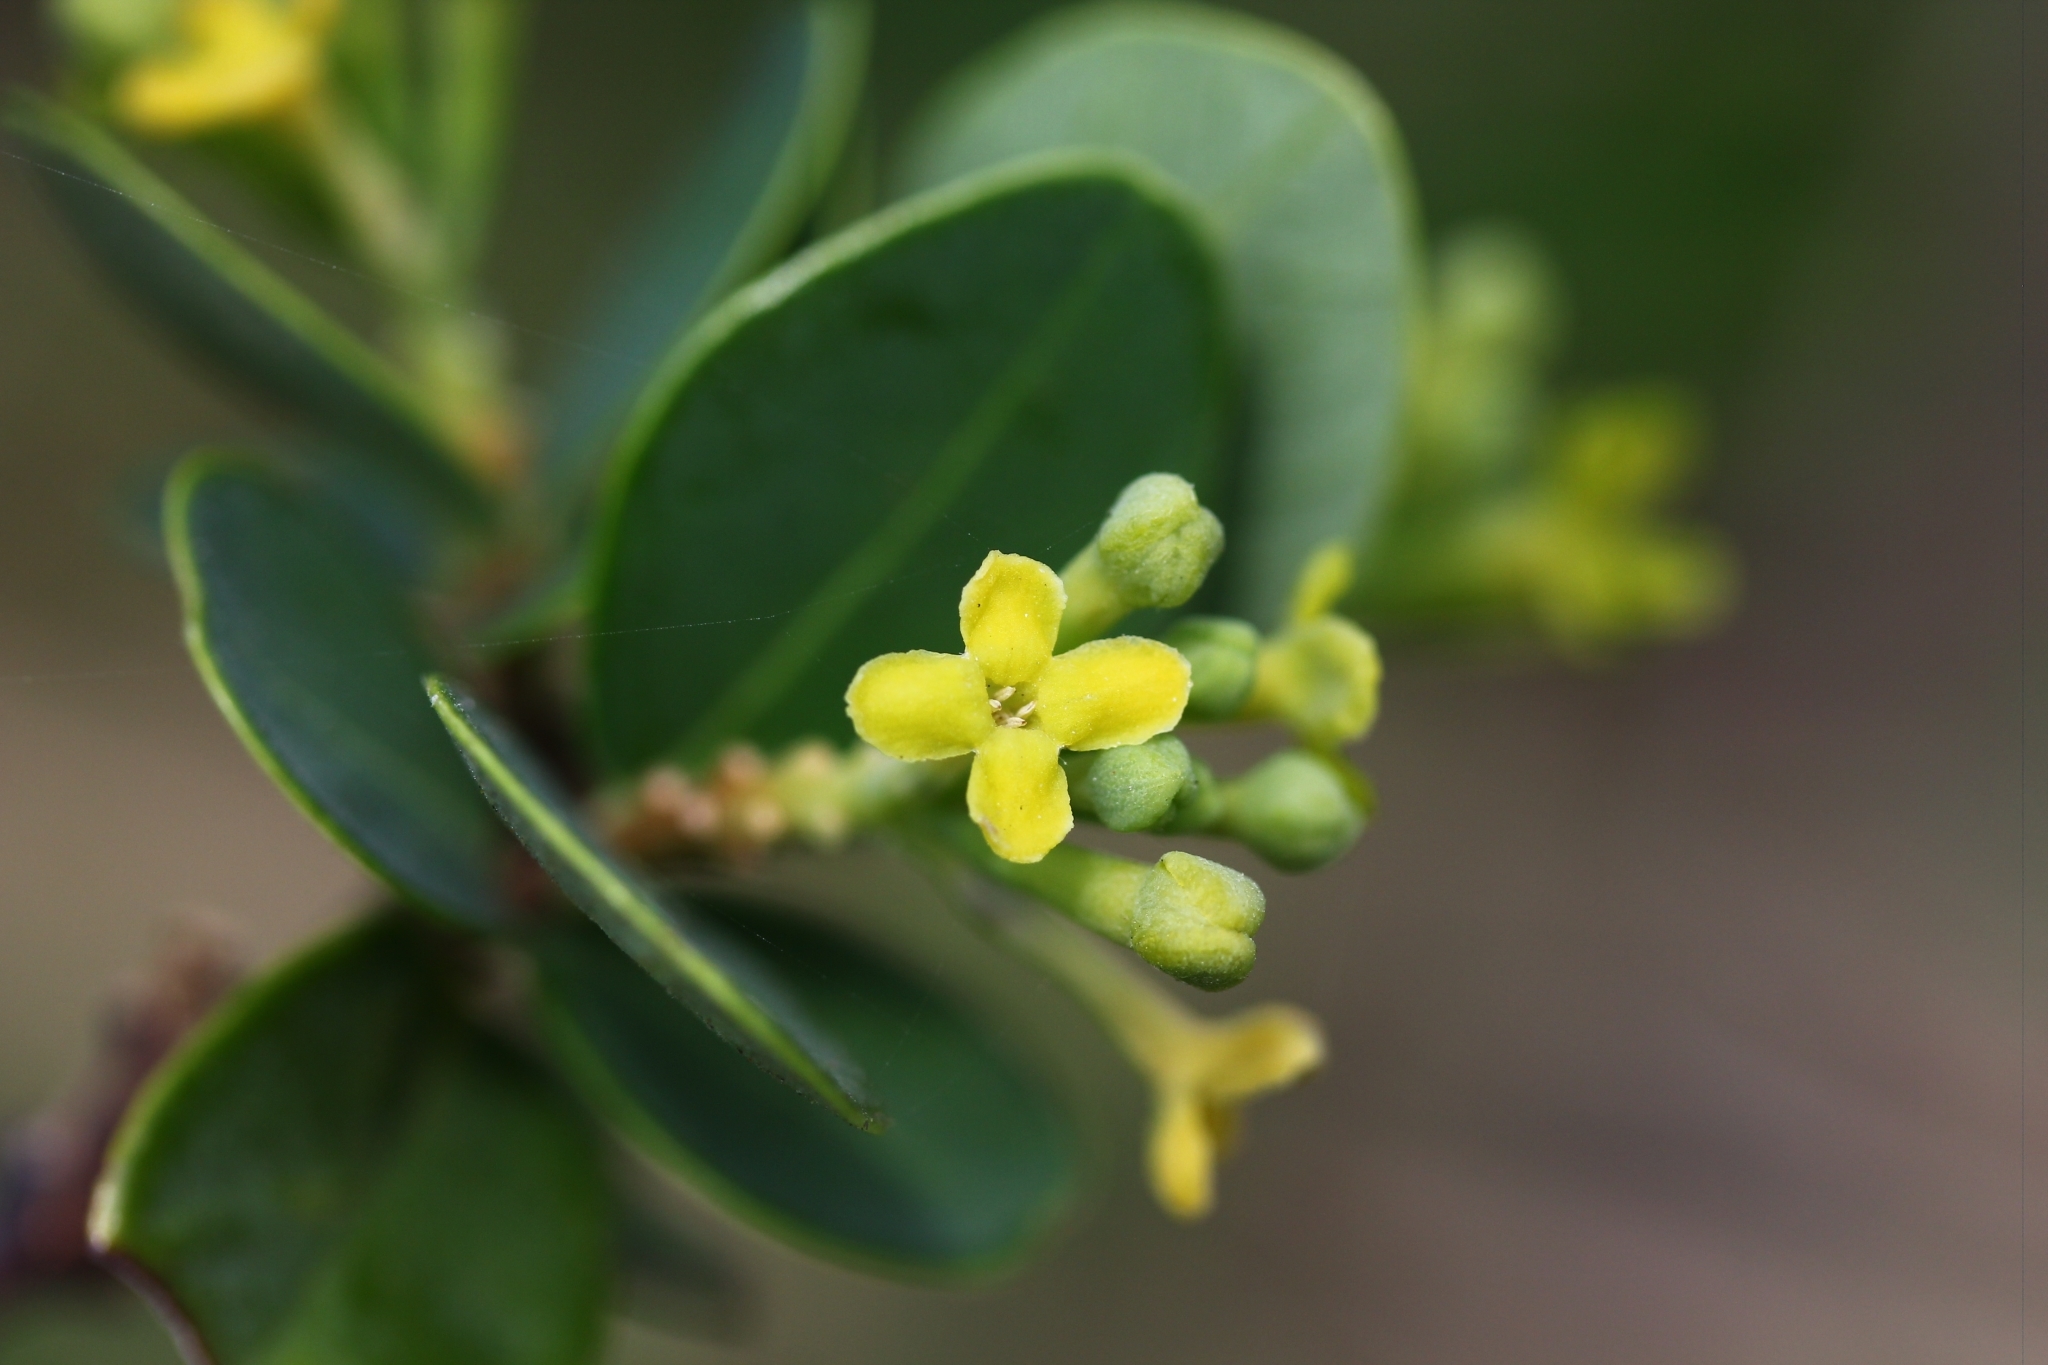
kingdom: Plantae
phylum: Tracheophyta
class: Magnoliopsida
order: Malvales
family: Thymelaeaceae
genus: Wikstroemia
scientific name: Wikstroemia retusa
